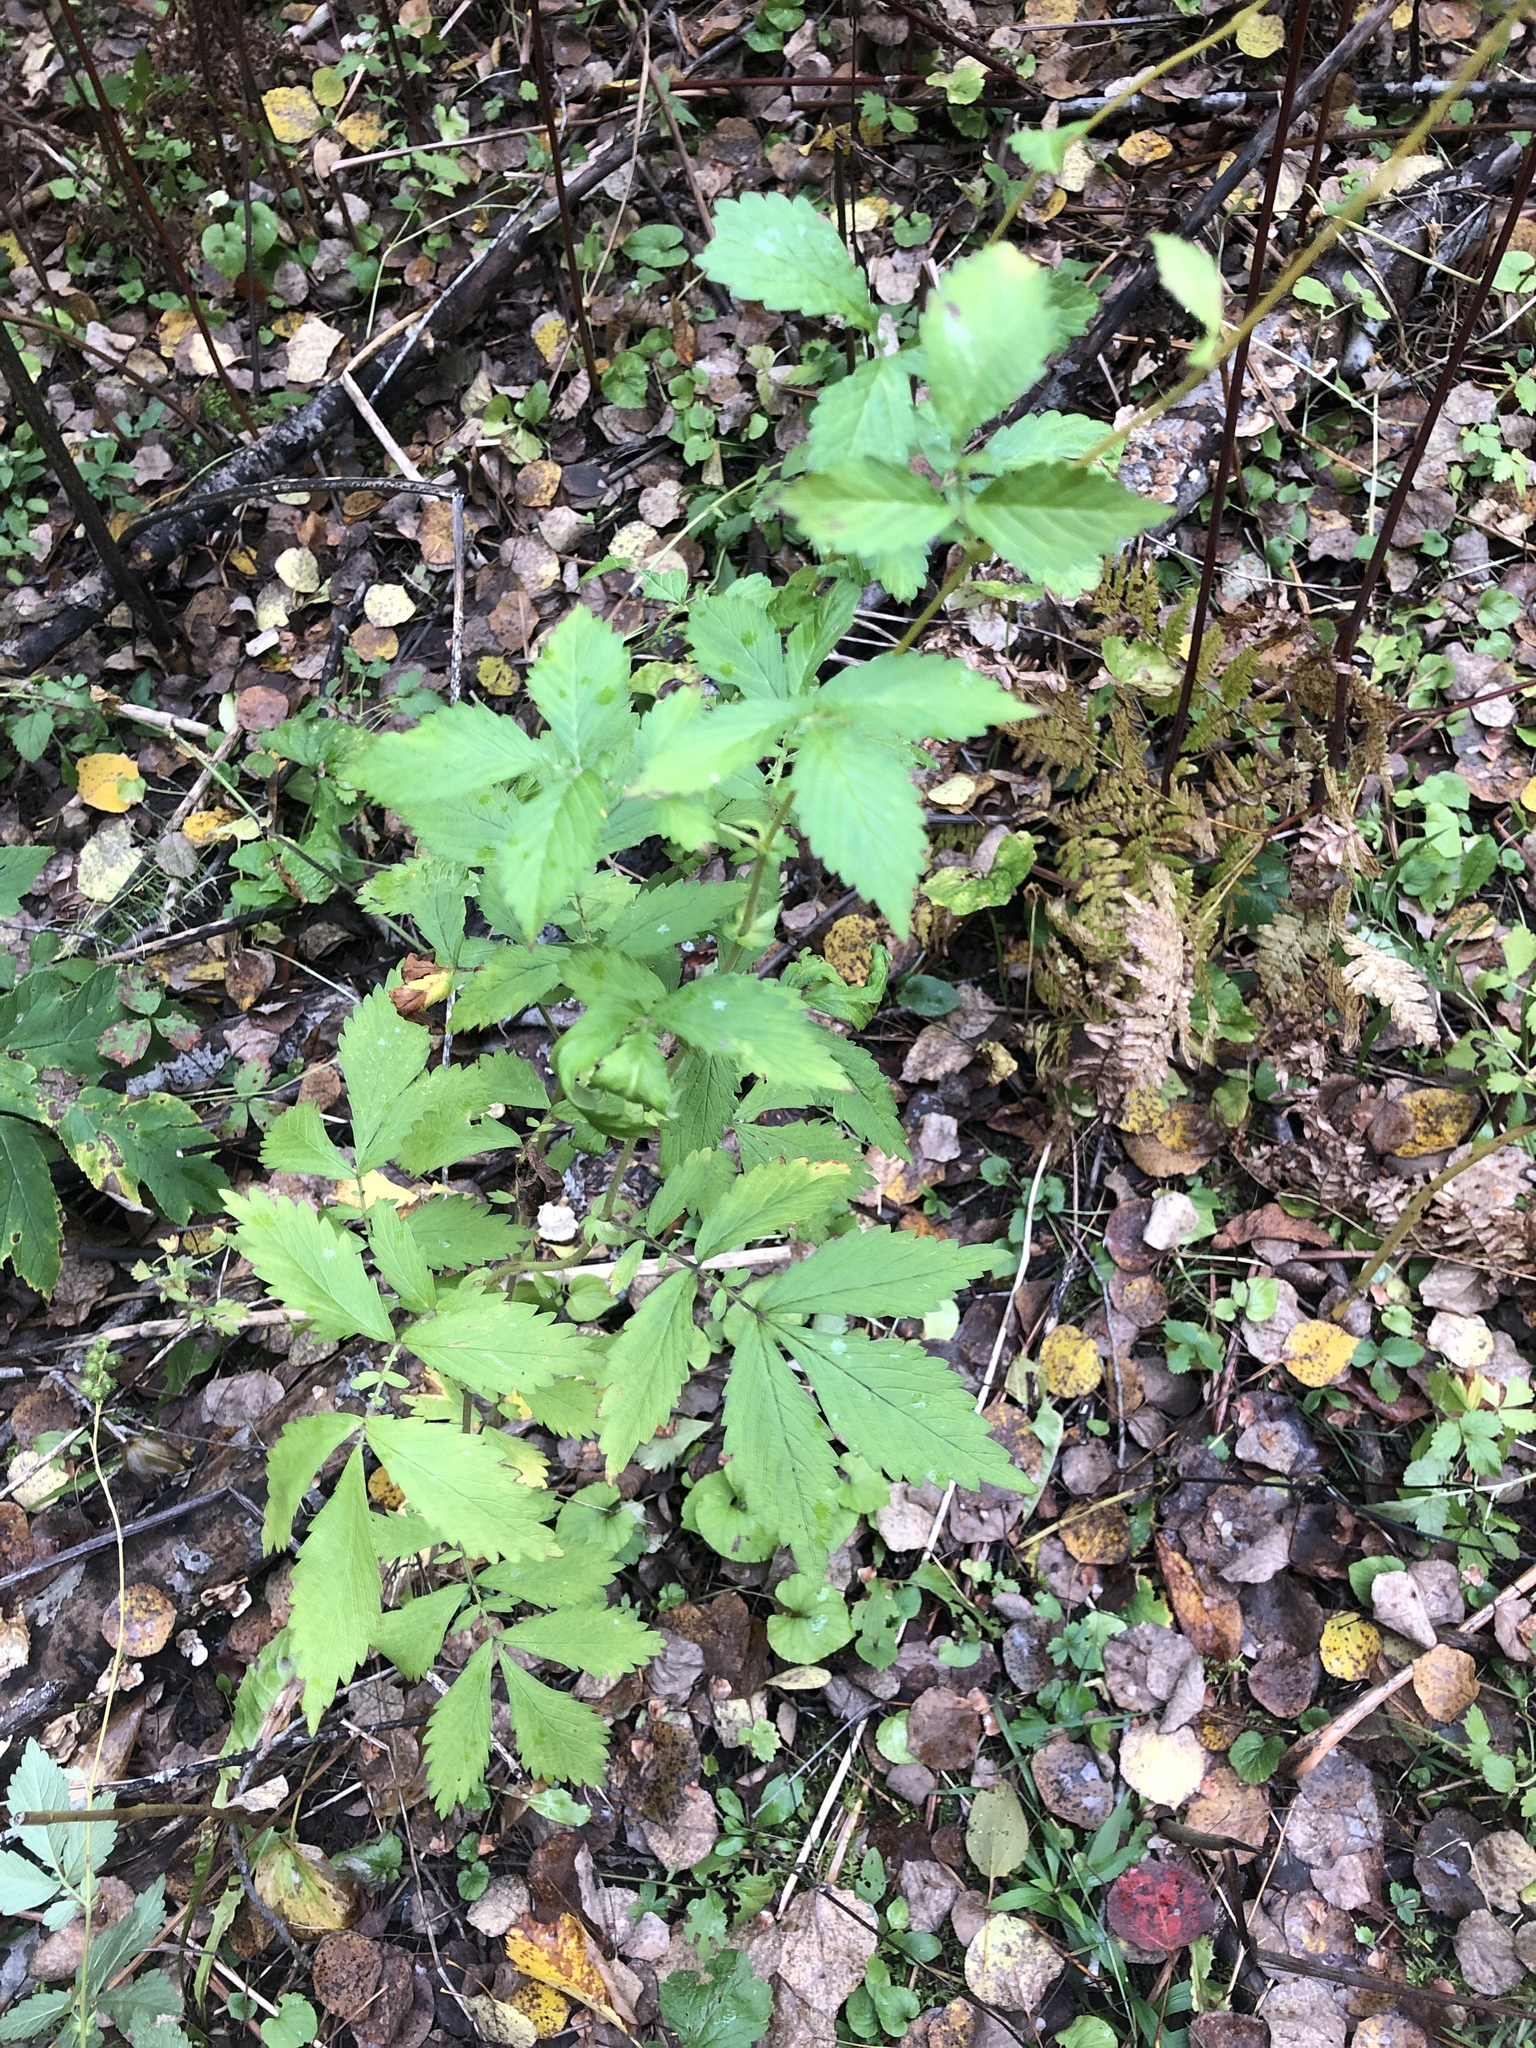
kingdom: Plantae
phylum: Tracheophyta
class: Magnoliopsida
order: Rosales
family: Rosaceae
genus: Agrimonia
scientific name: Agrimonia striata
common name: Britton's agrimony
